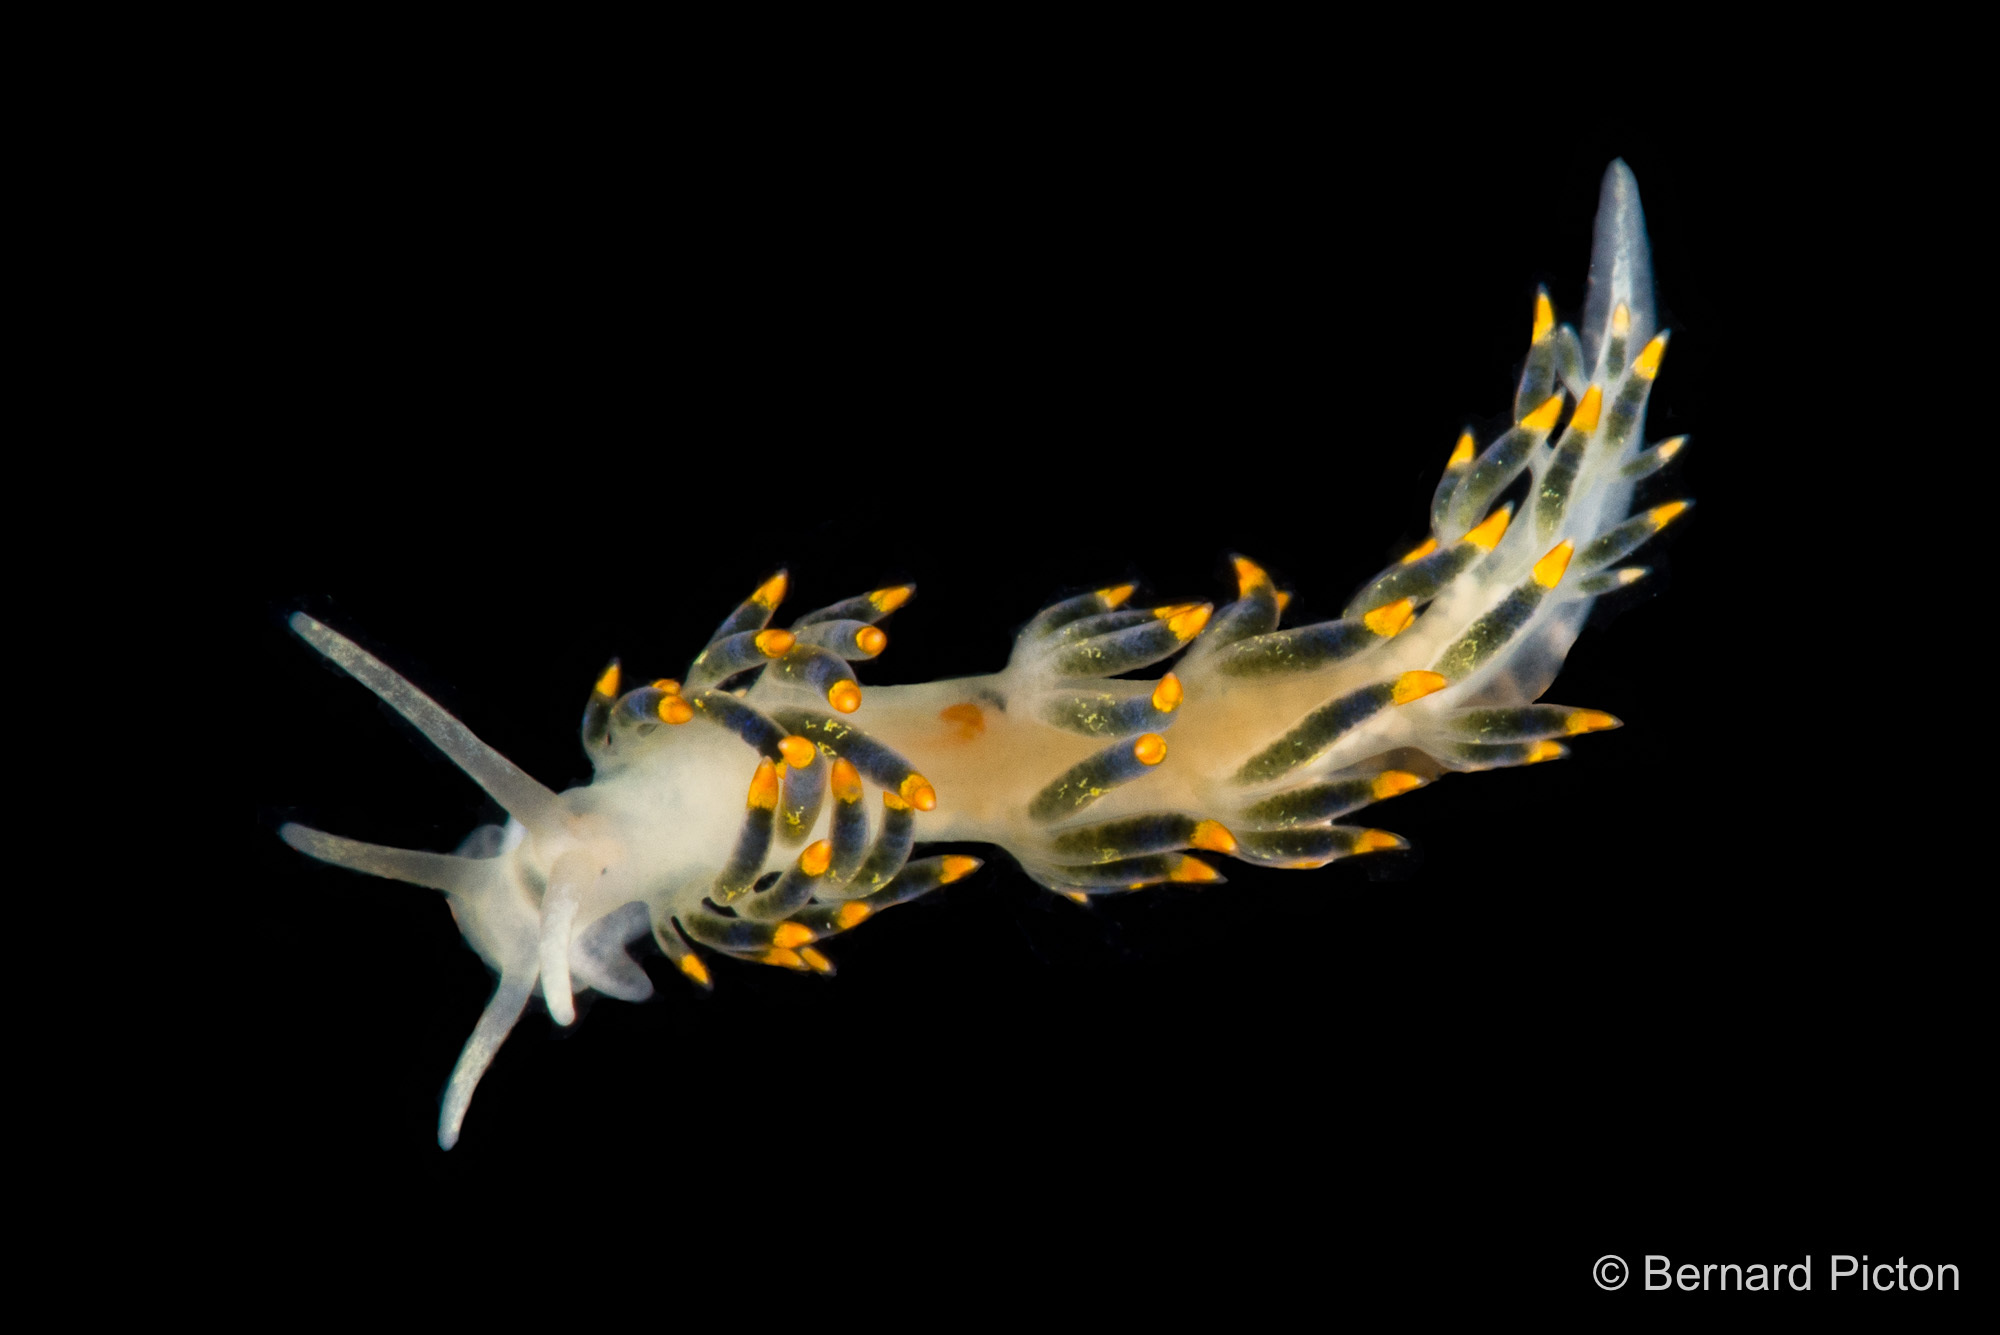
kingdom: Animalia
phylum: Mollusca
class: Gastropoda
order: Nudibranchia
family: Trinchesiidae
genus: Trinchesia
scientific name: Trinchesia caerulea
